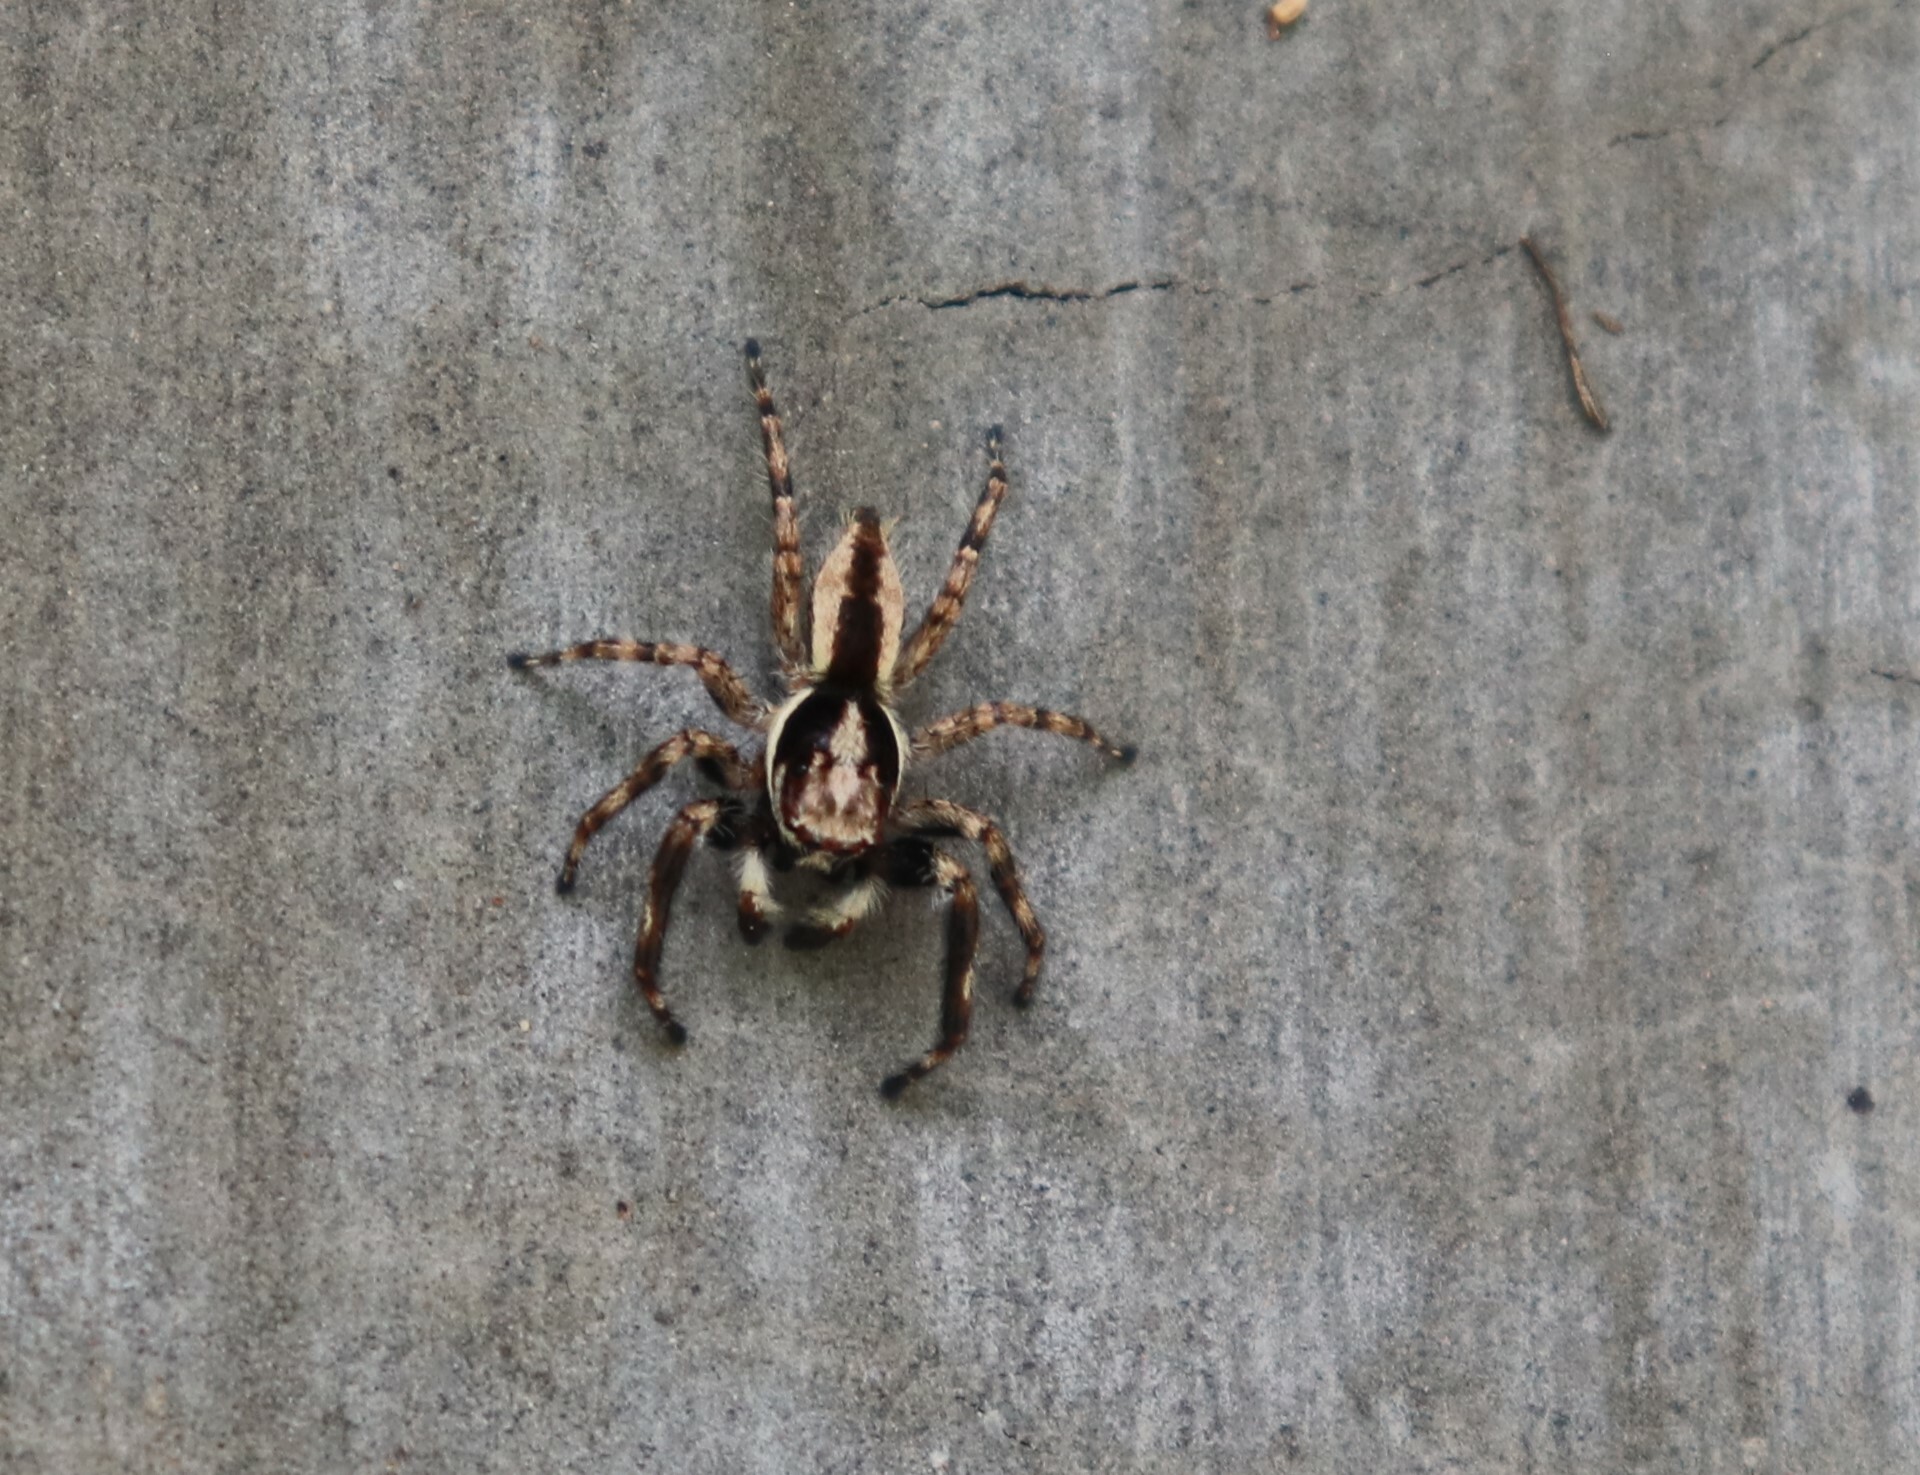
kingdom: Animalia
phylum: Arthropoda
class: Arachnida
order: Araneae
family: Salticidae
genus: Menemerus
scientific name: Menemerus bivittatus
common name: Gray wall jumper
